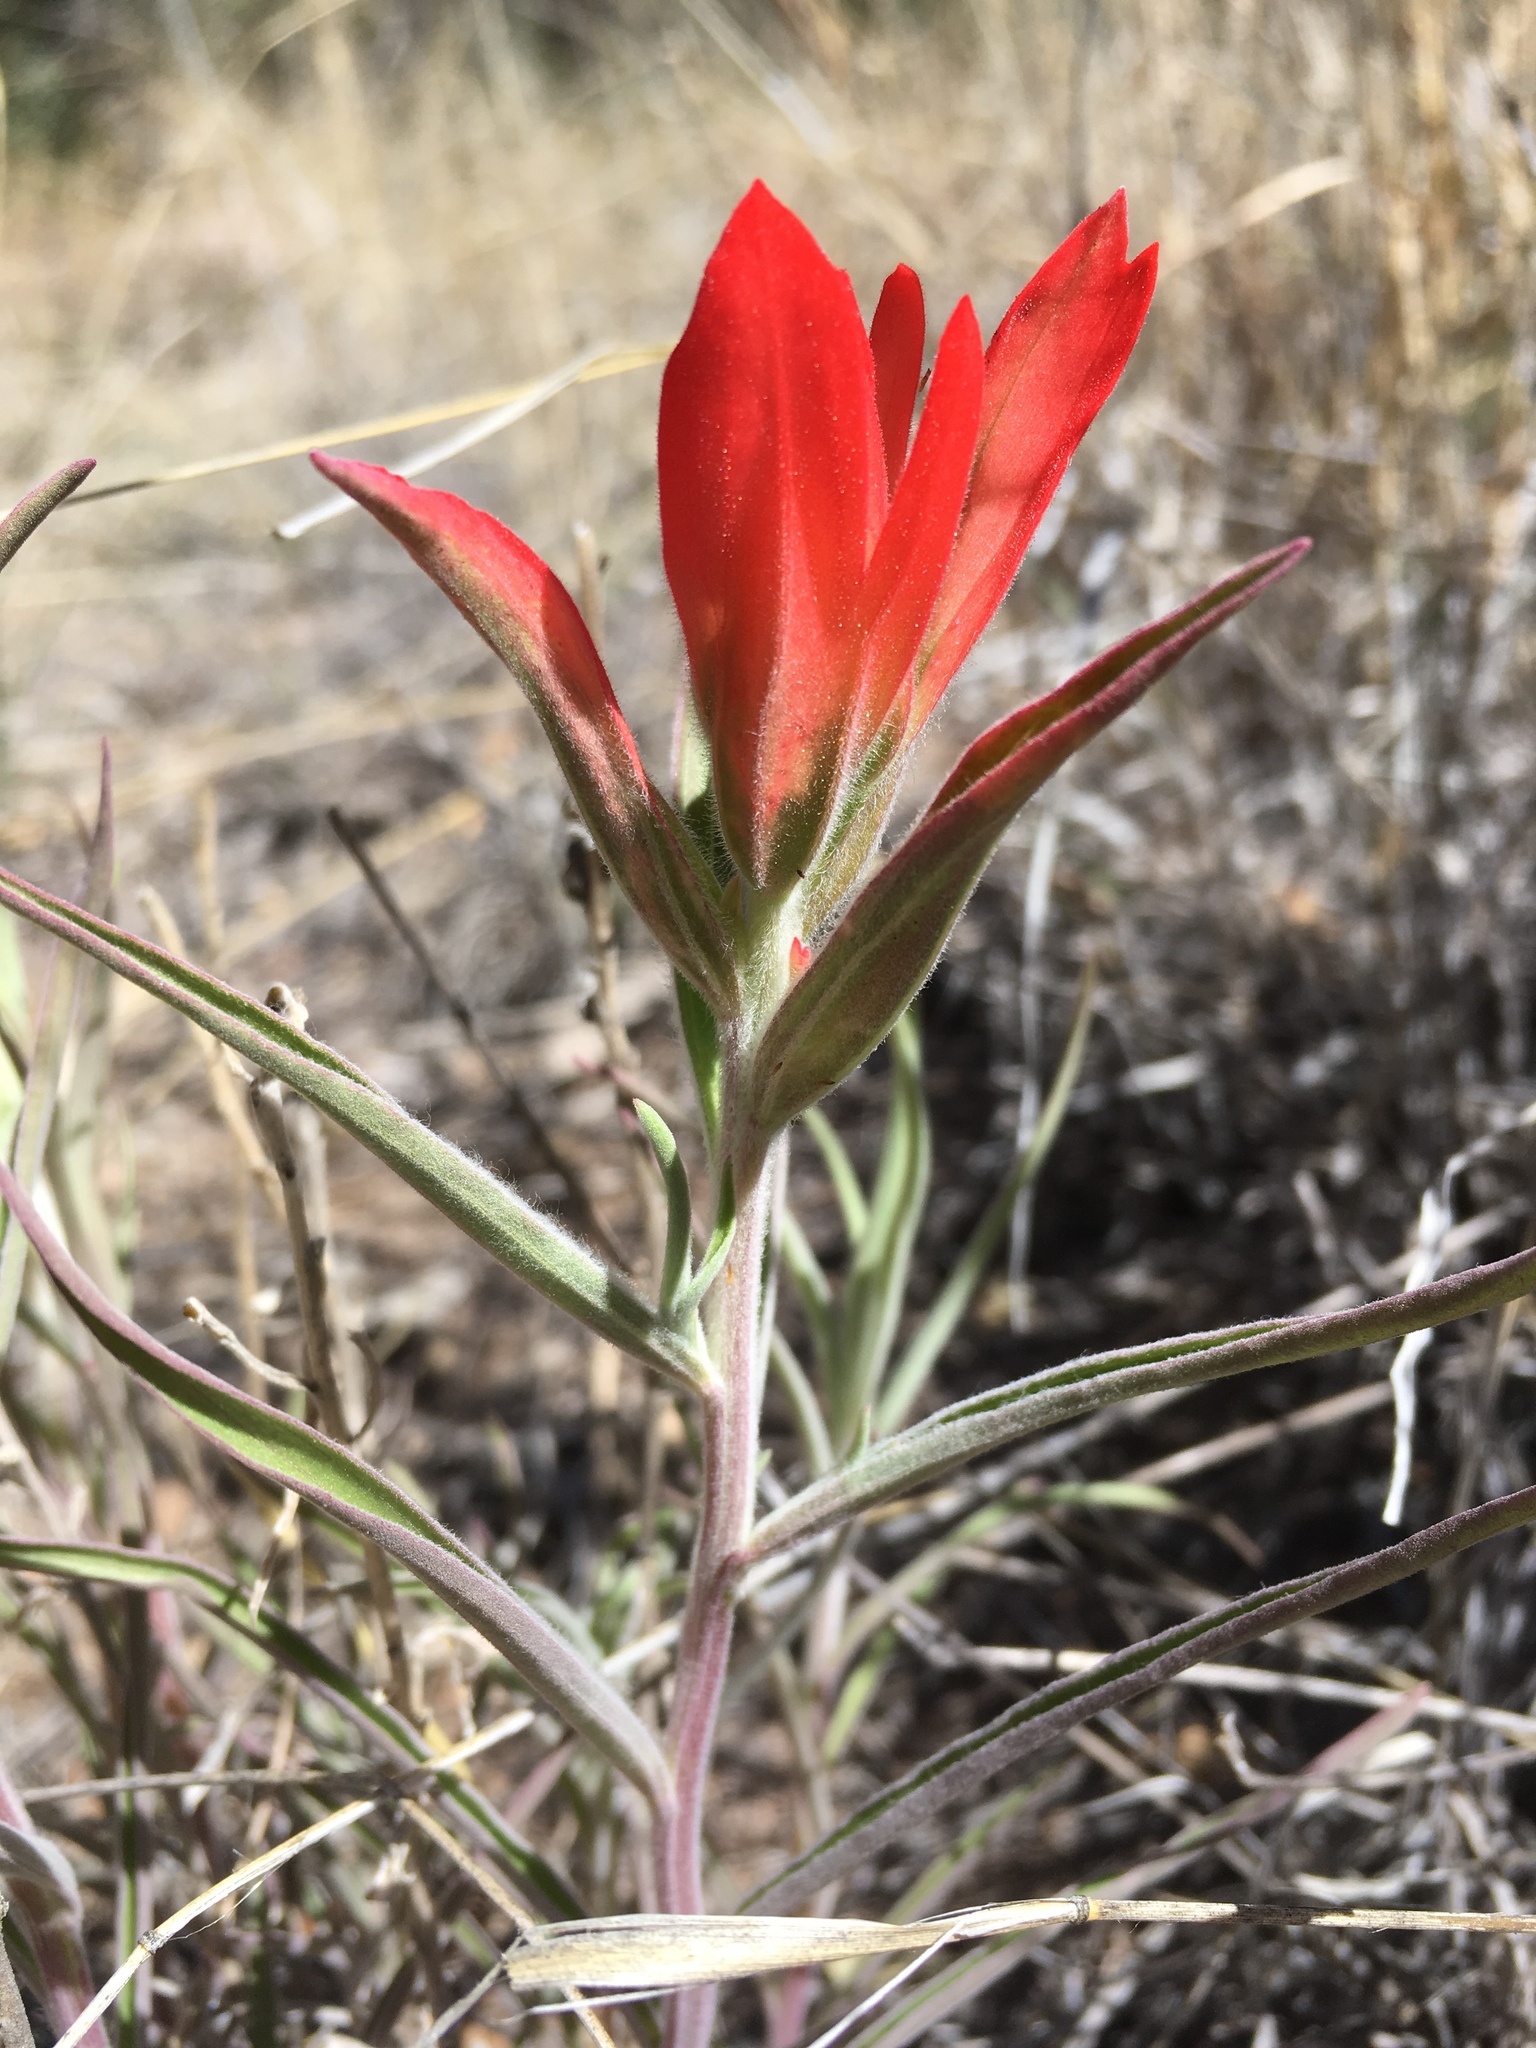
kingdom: Plantae
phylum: Tracheophyta
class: Magnoliopsida
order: Lamiales
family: Orobanchaceae
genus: Castilleja
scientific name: Castilleja integra
